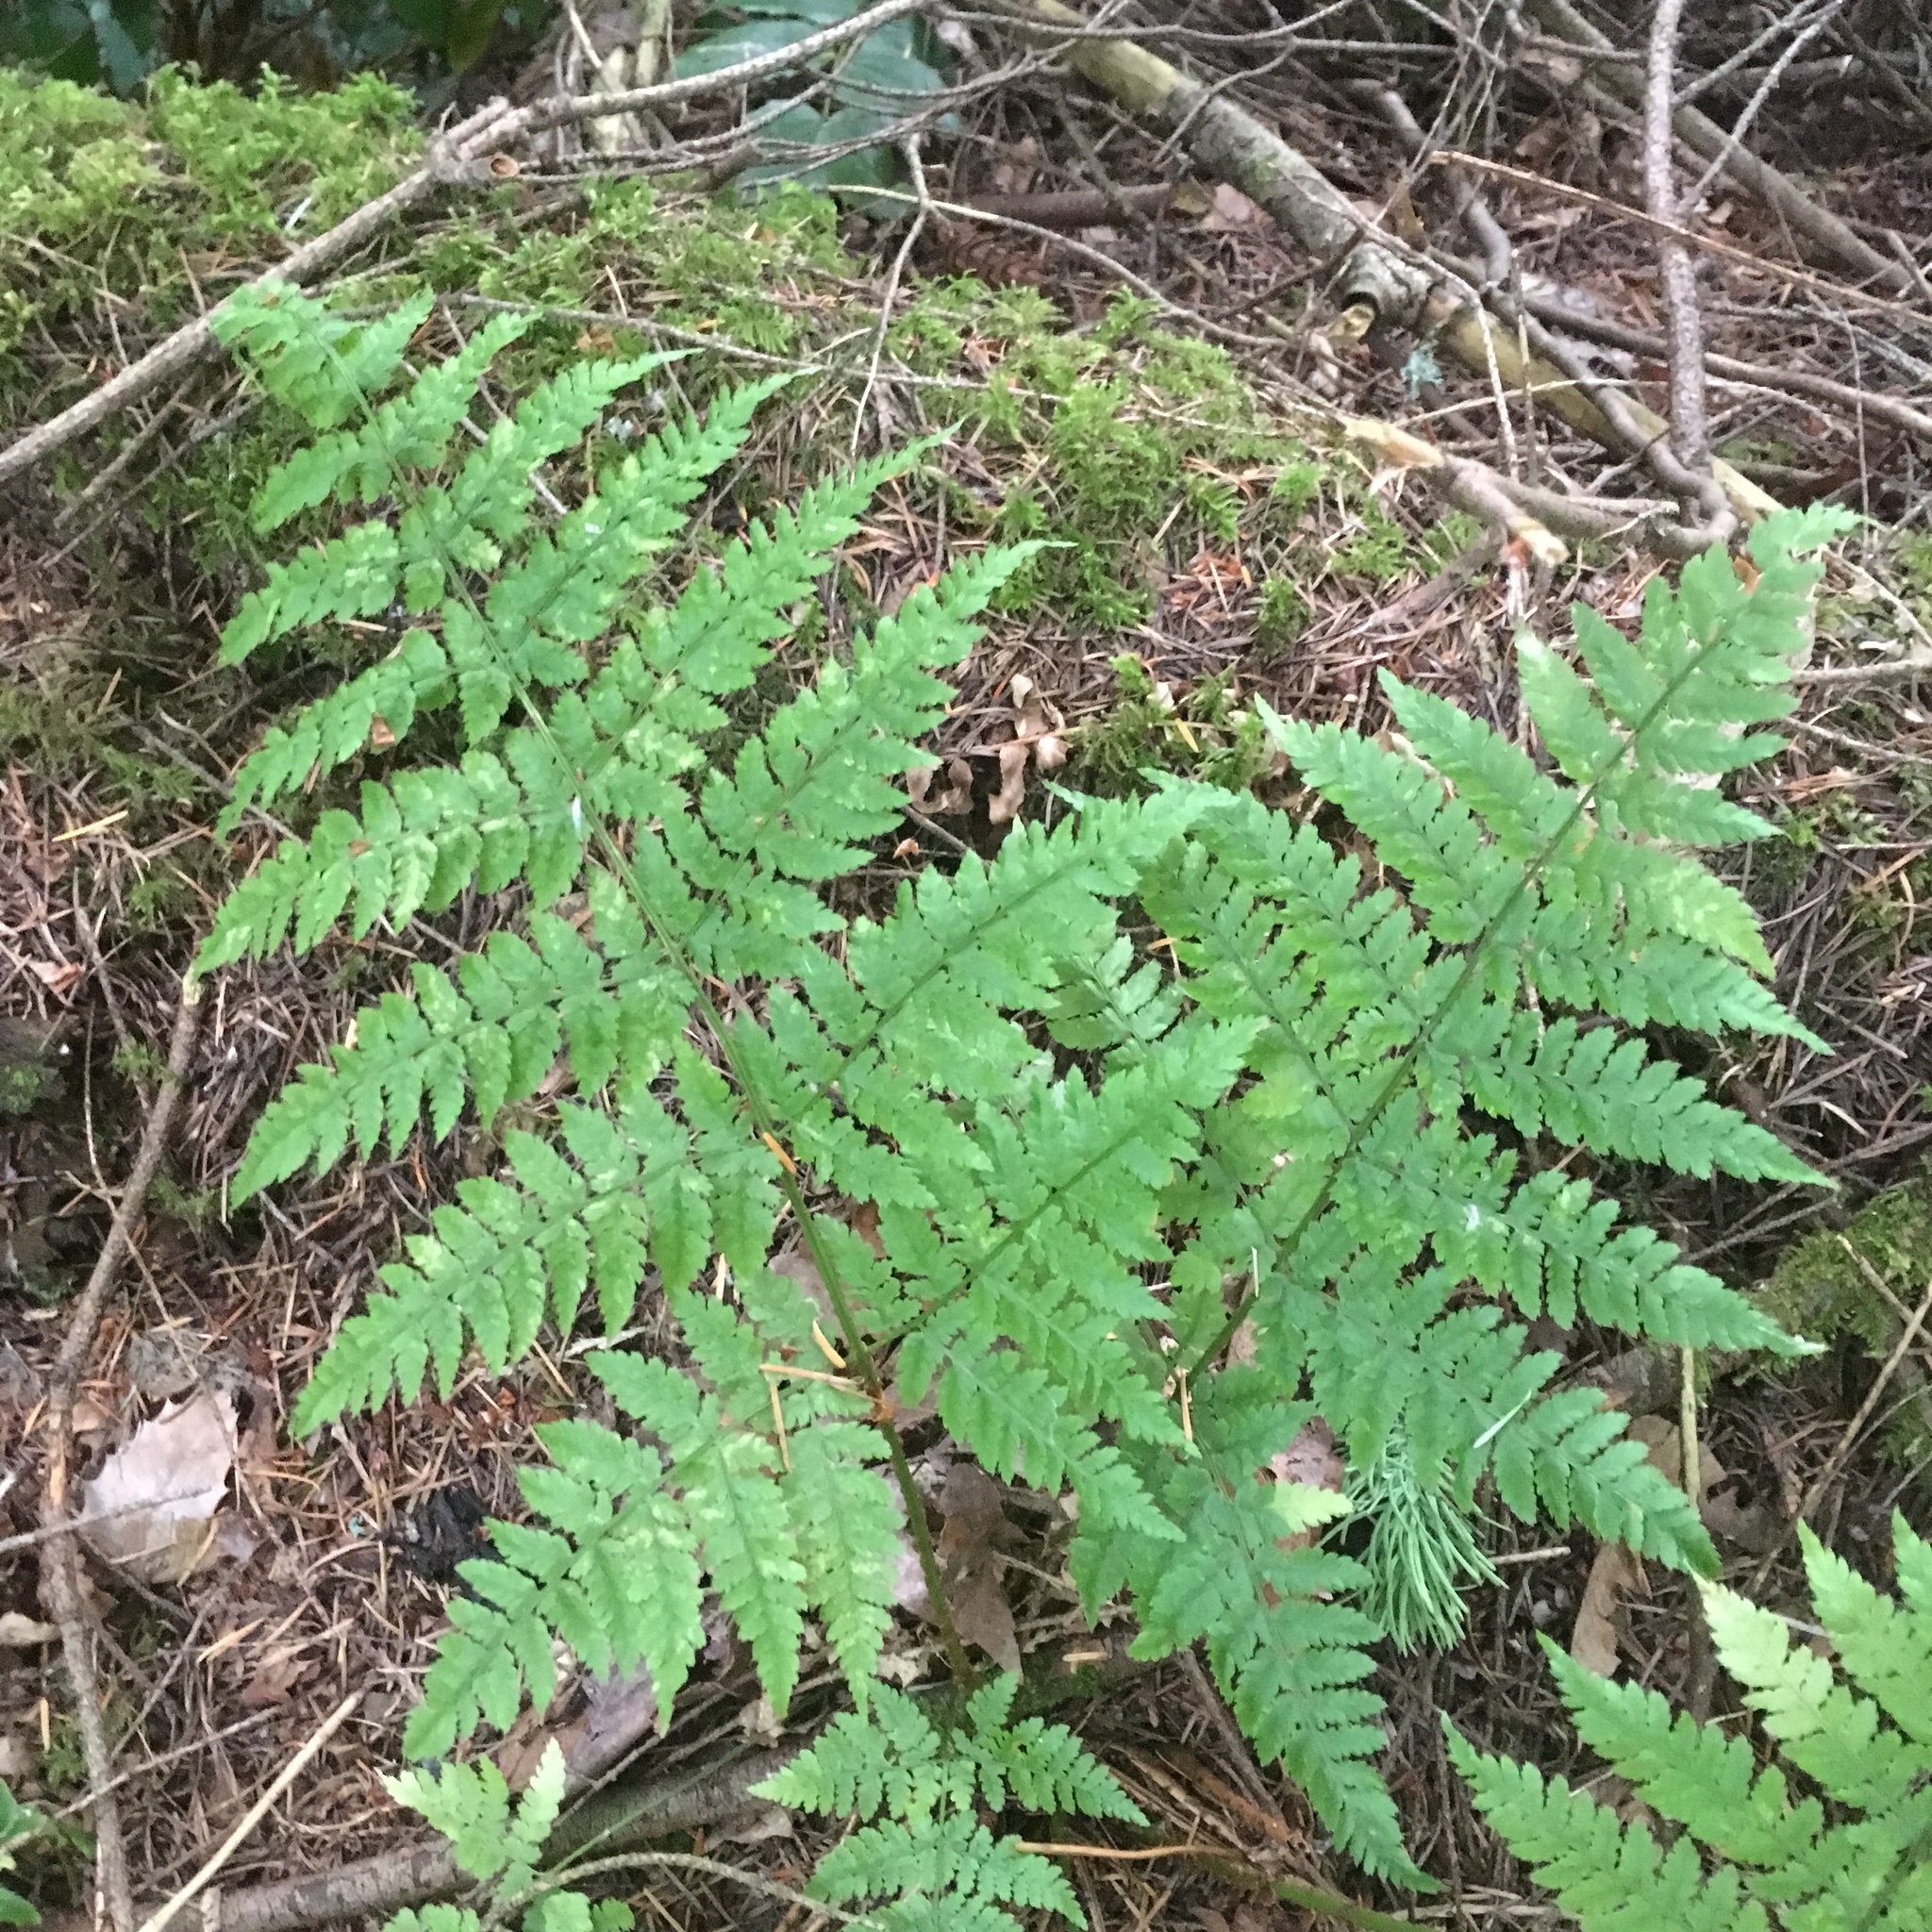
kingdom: Plantae
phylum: Tracheophyta
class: Polypodiopsida
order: Polypodiales
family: Dryopteridaceae
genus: Dryopteris
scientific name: Dryopteris expansa
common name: Northern buckler fern
